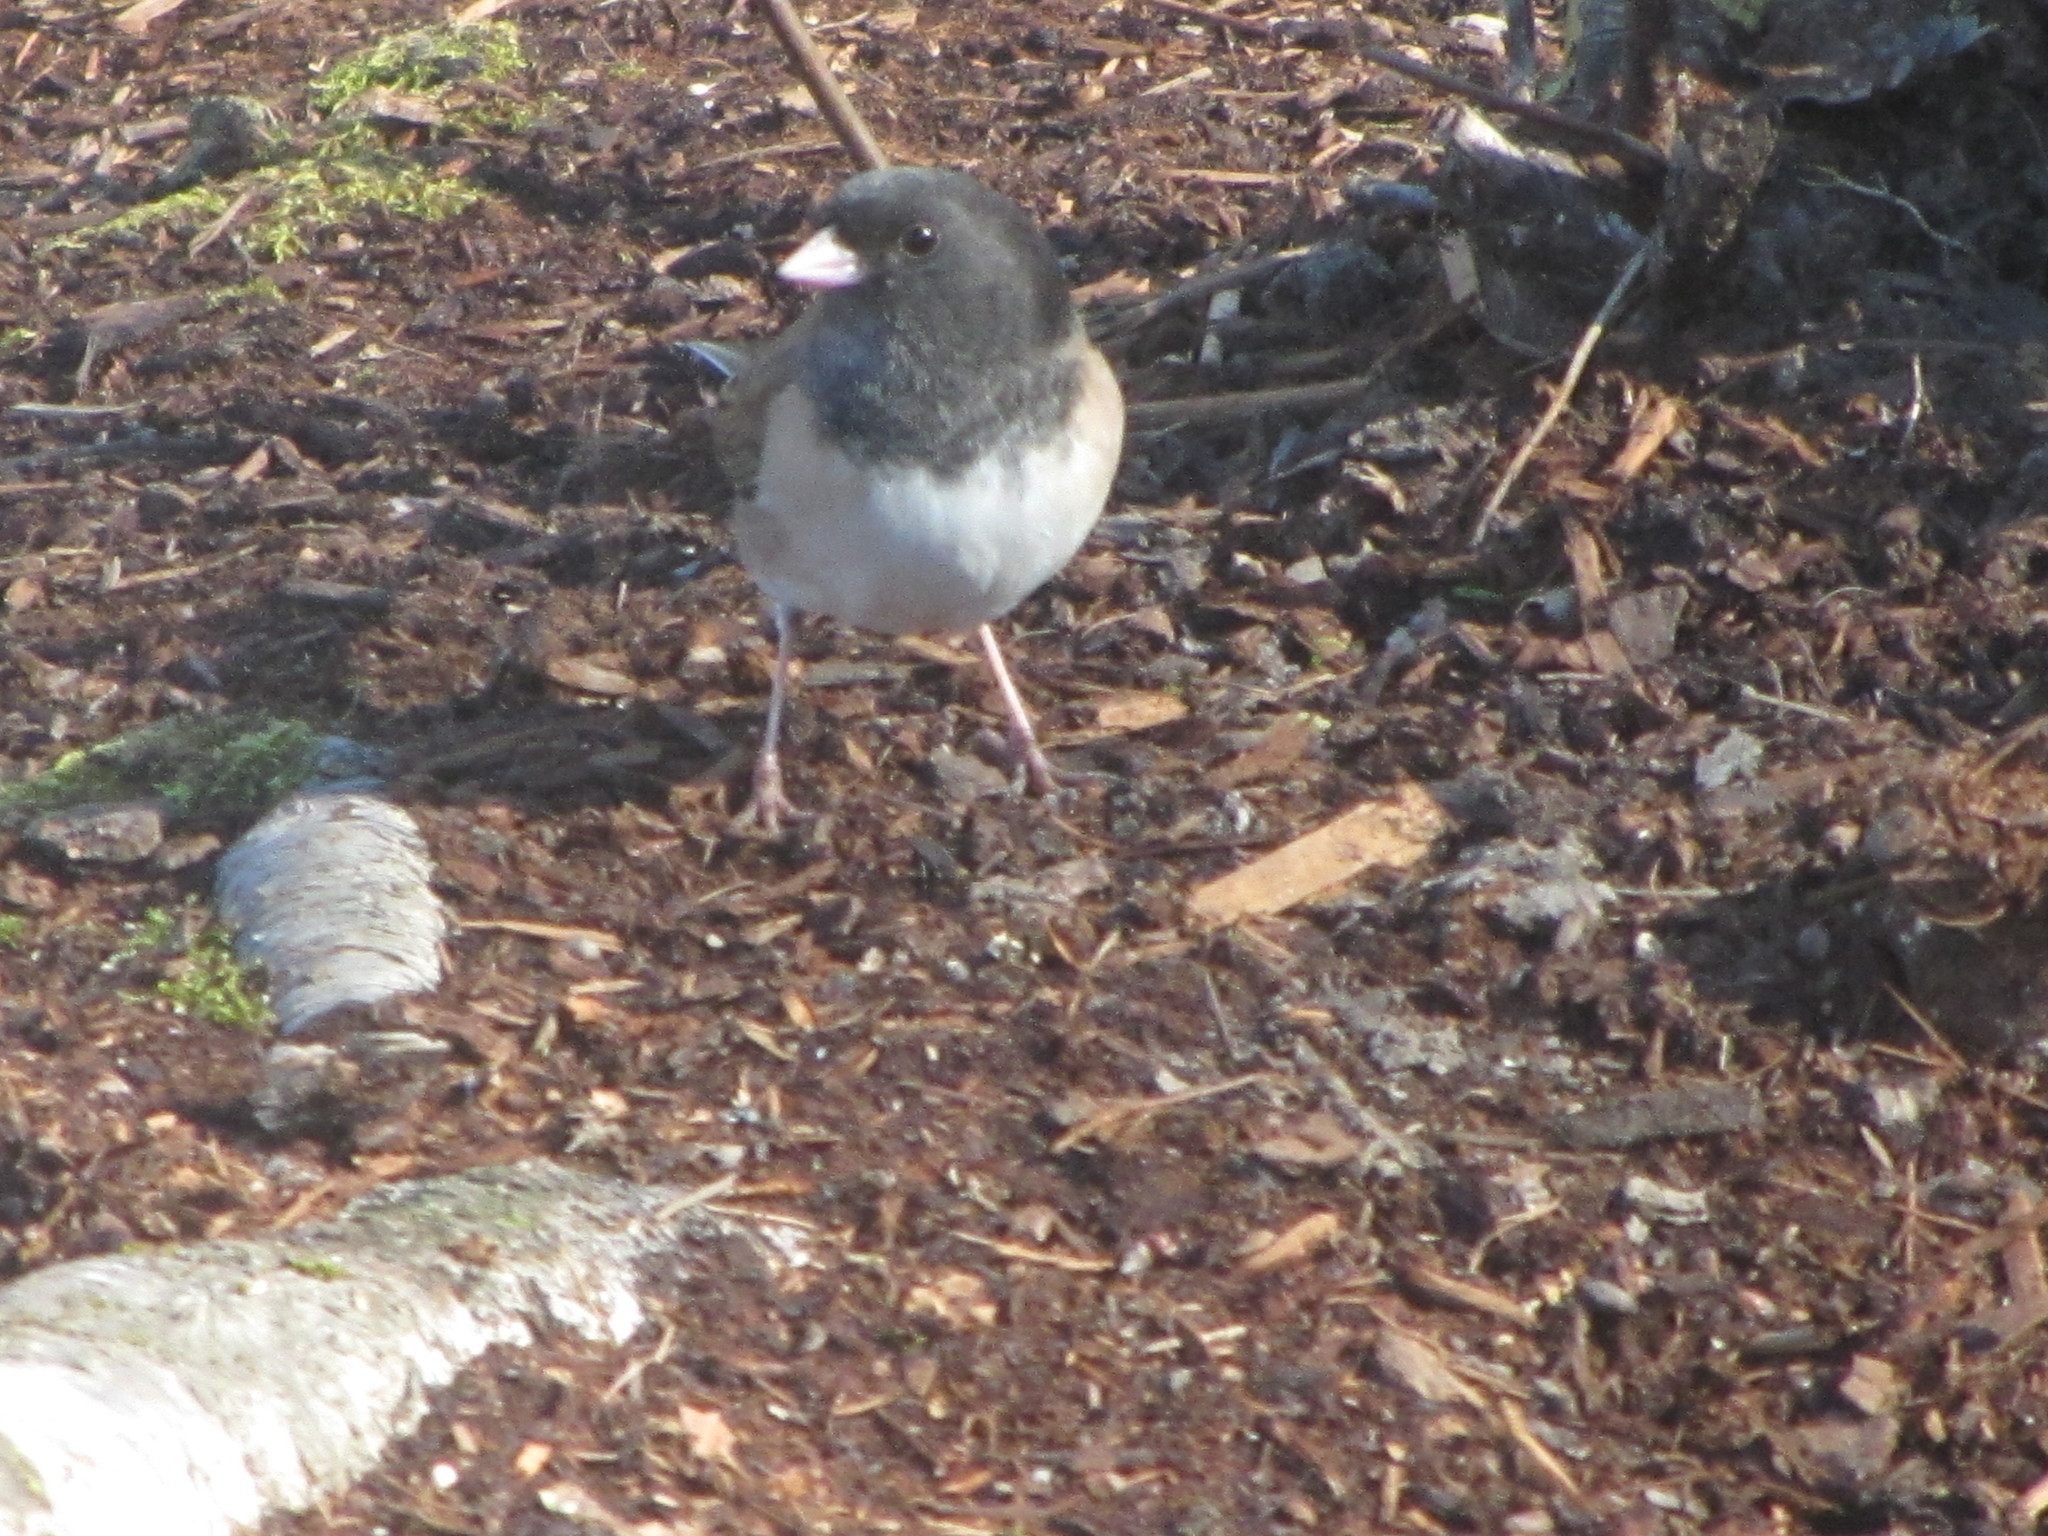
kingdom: Animalia
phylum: Chordata
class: Aves
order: Passeriformes
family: Passerellidae
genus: Junco
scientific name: Junco hyemalis
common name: Dark-eyed junco
